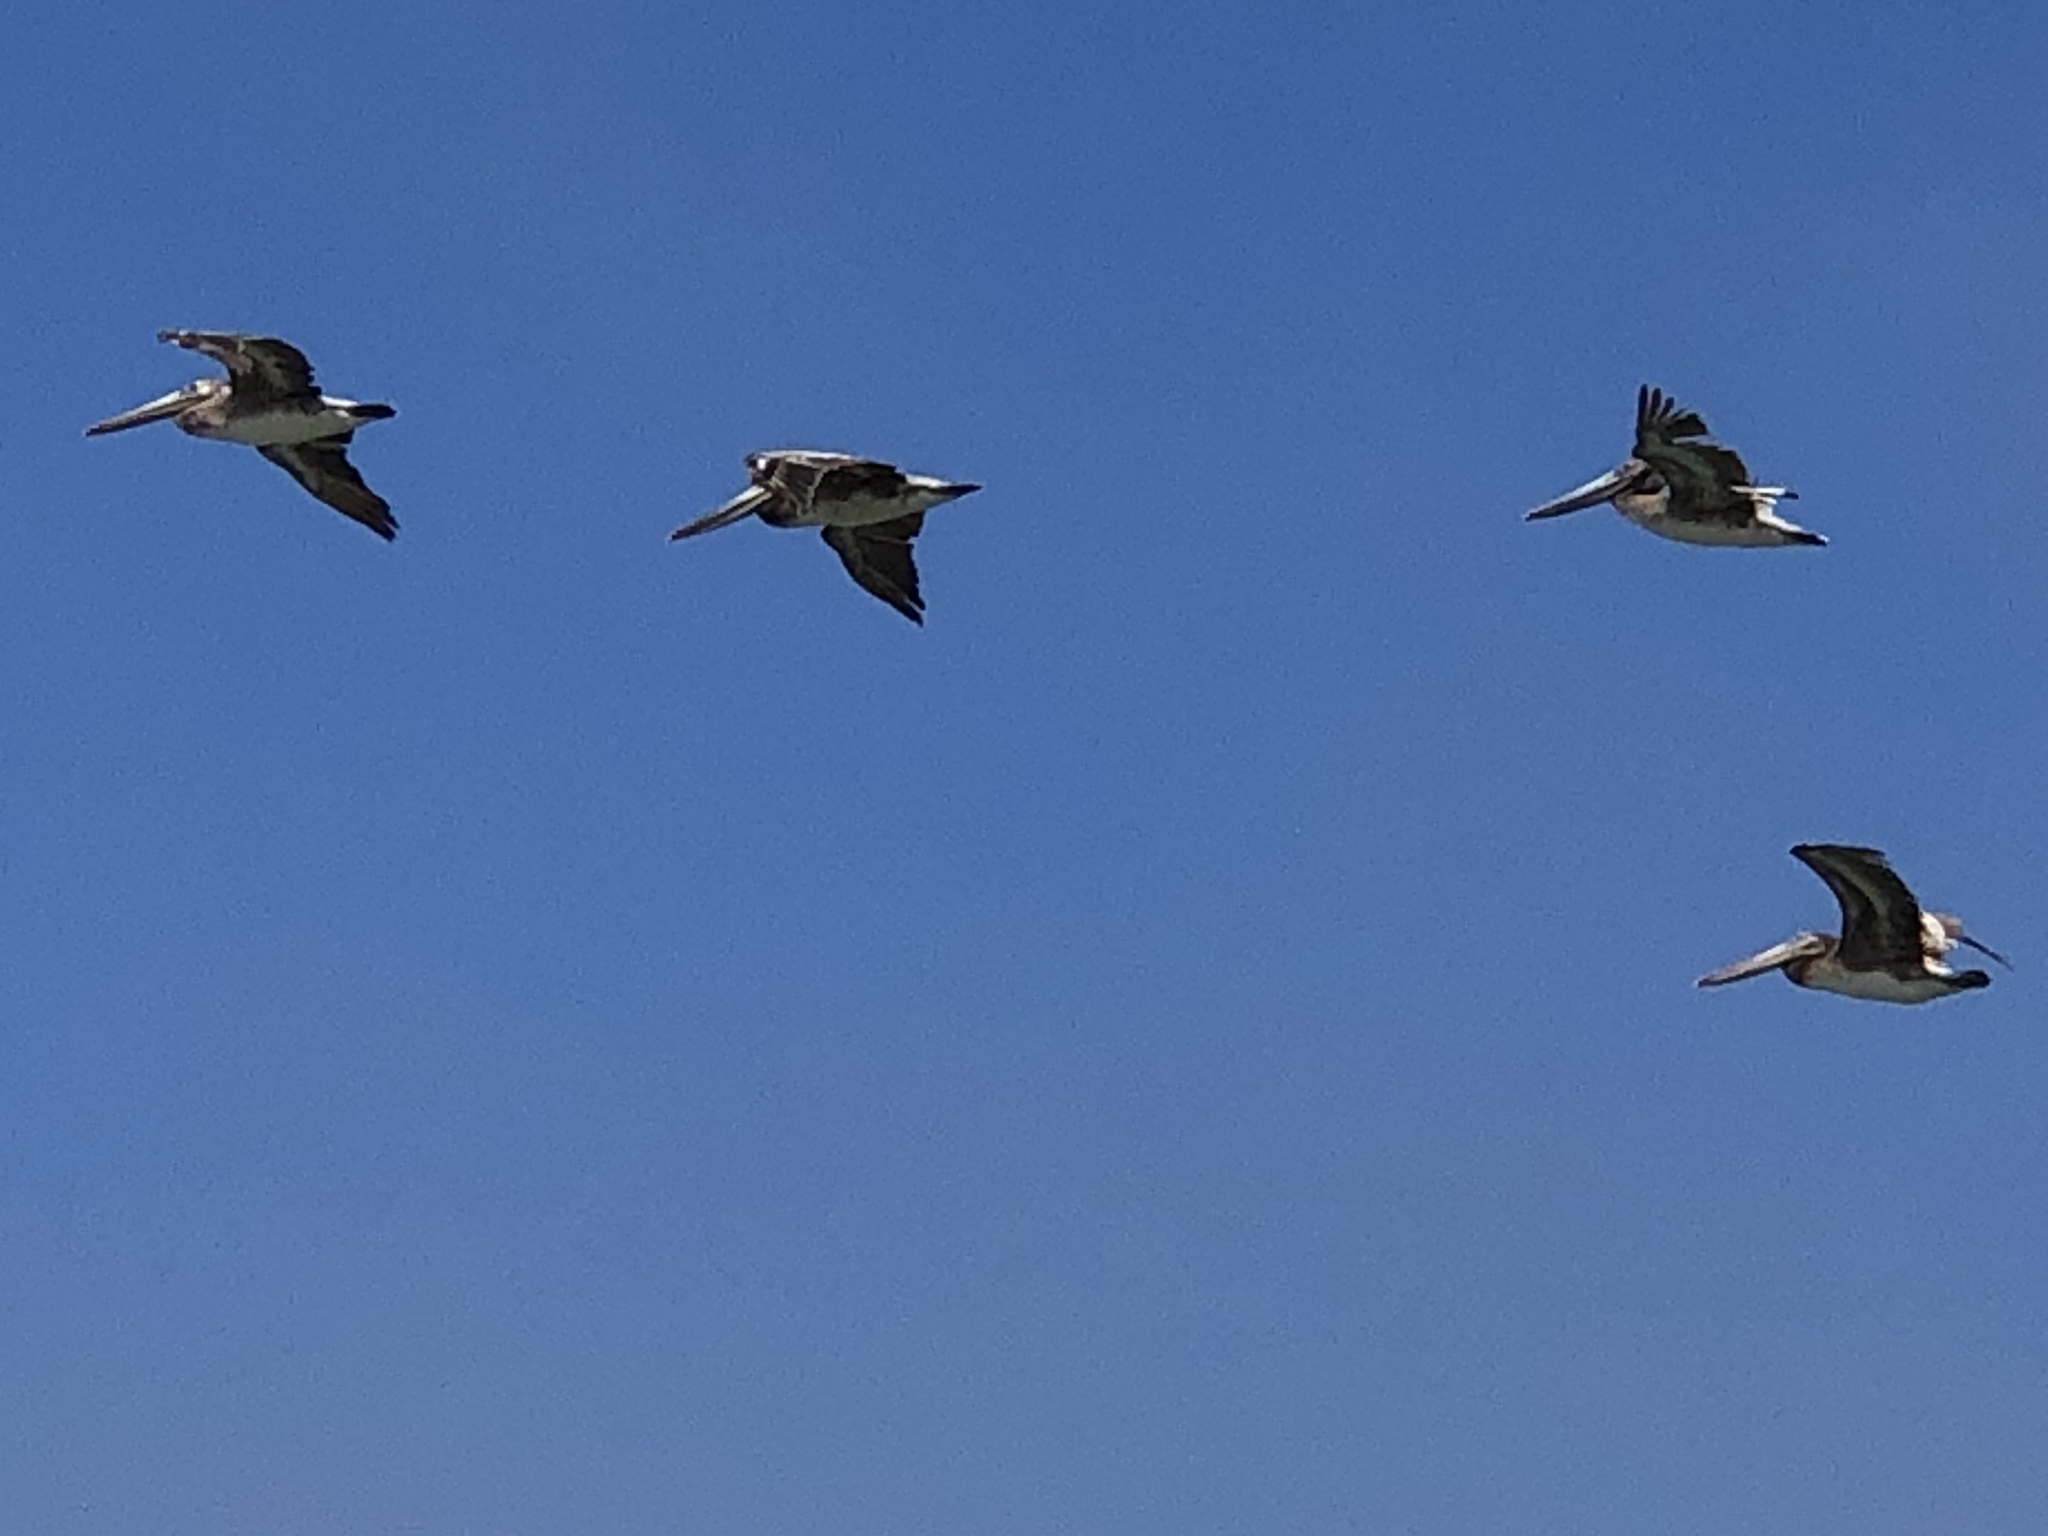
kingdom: Animalia
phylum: Chordata
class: Aves
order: Pelecaniformes
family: Pelecanidae
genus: Pelecanus
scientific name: Pelecanus occidentalis
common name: Brown pelican
